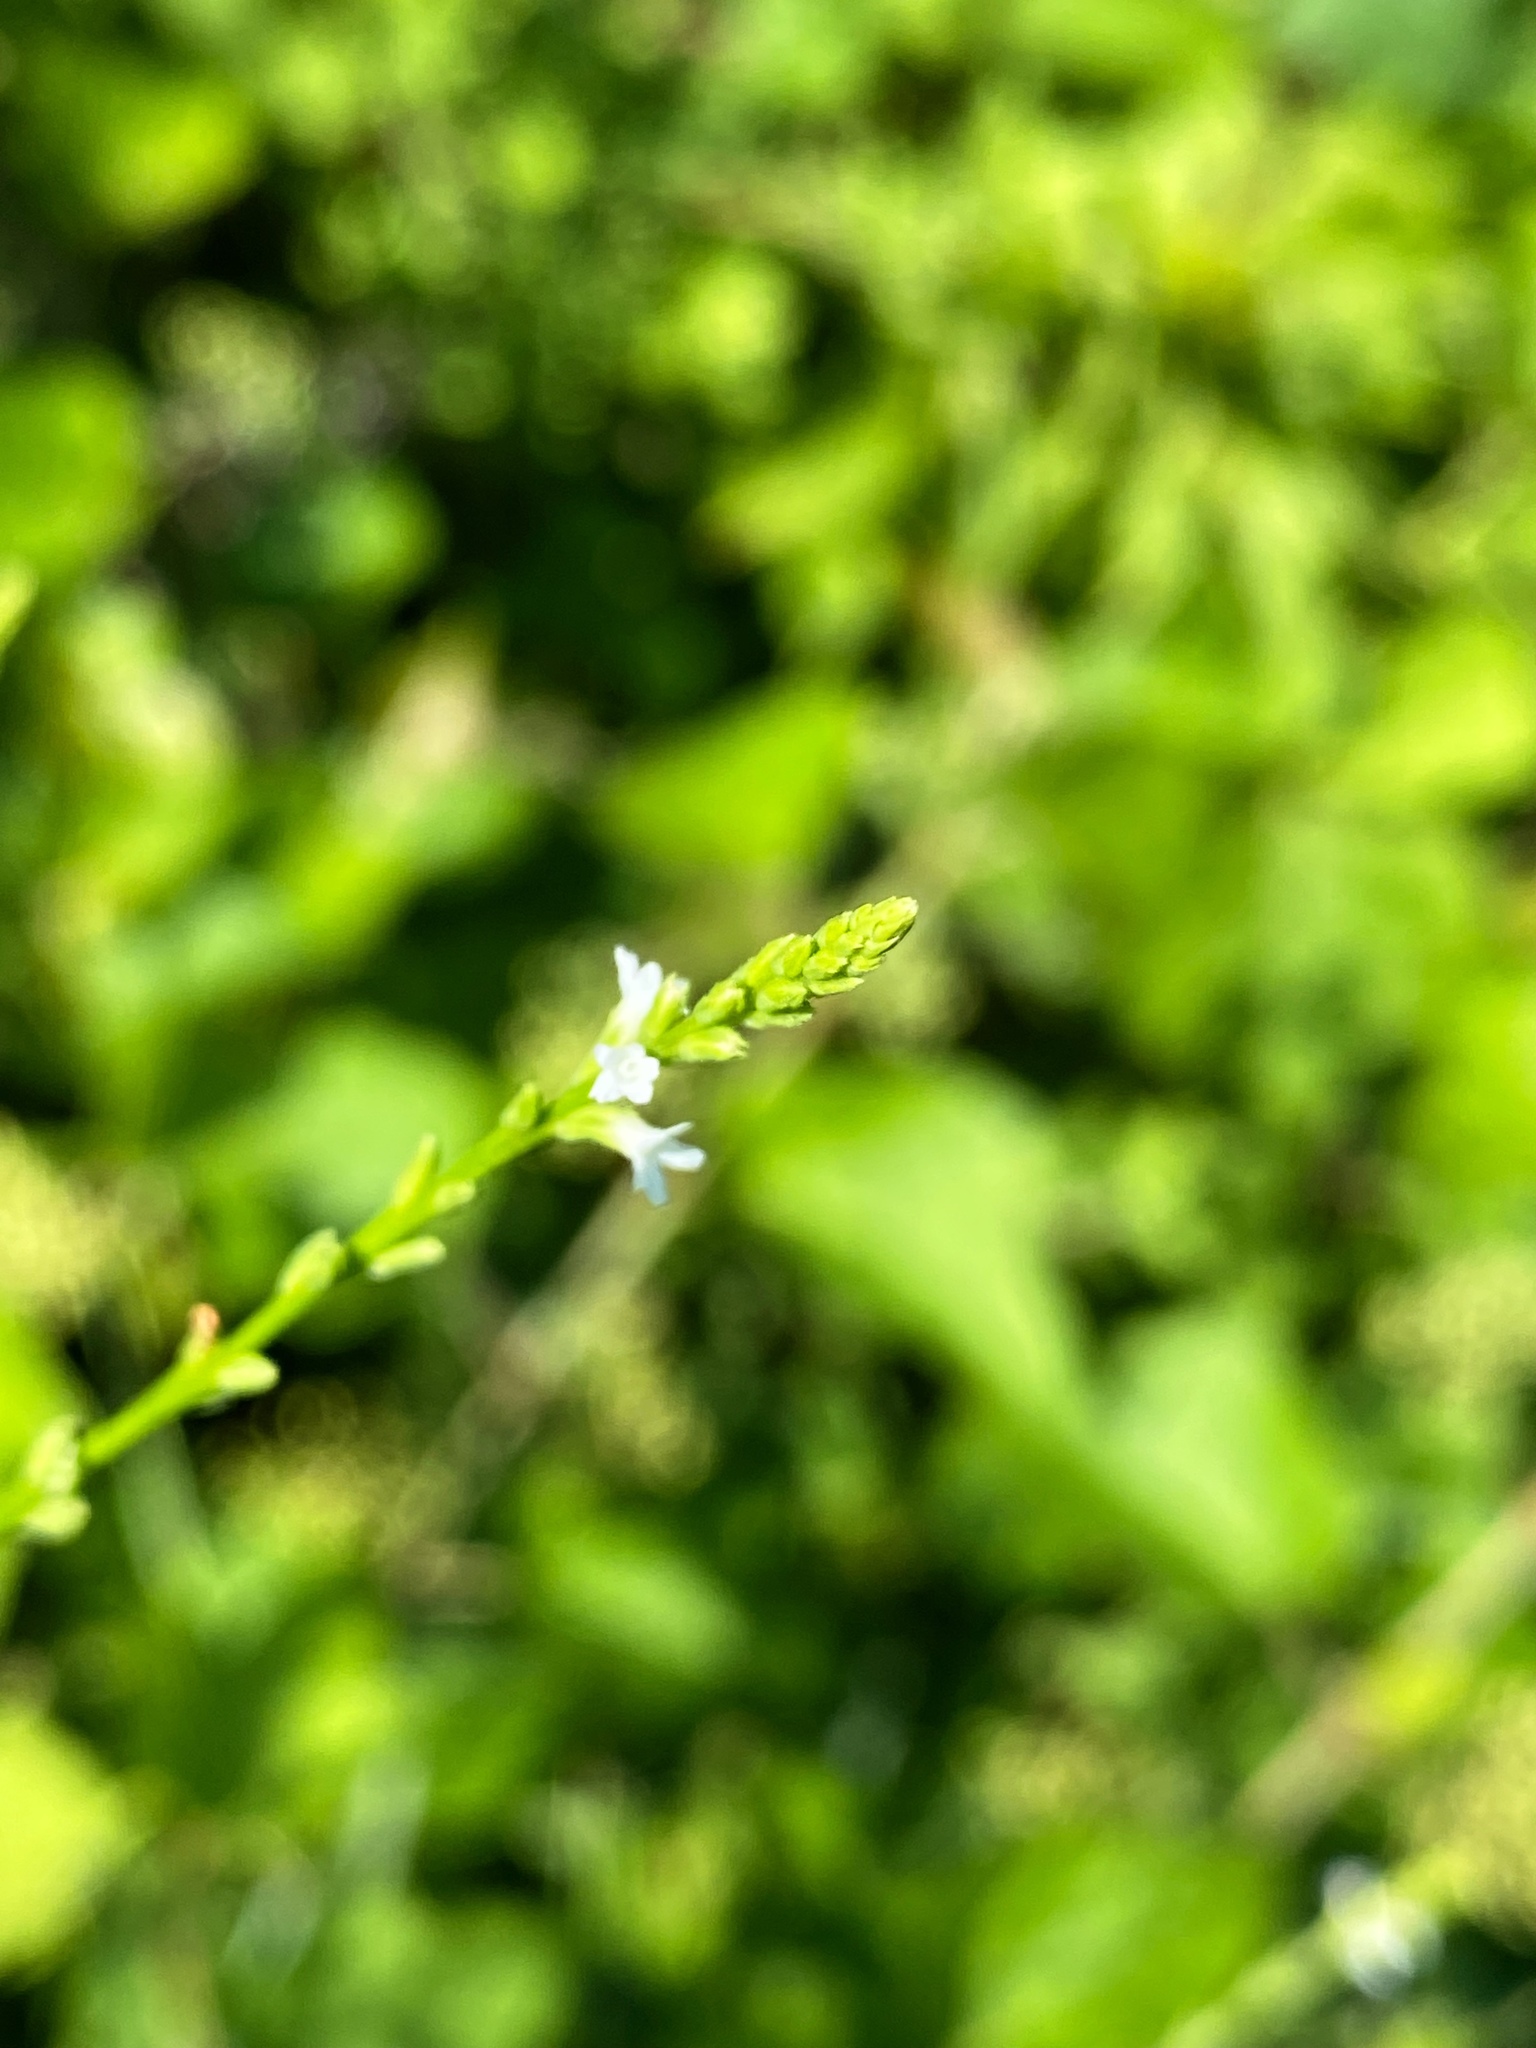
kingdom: Plantae
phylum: Tracheophyta
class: Magnoliopsida
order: Lamiales
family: Verbenaceae
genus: Verbena
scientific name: Verbena urticifolia
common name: Nettle-leaved vervain
